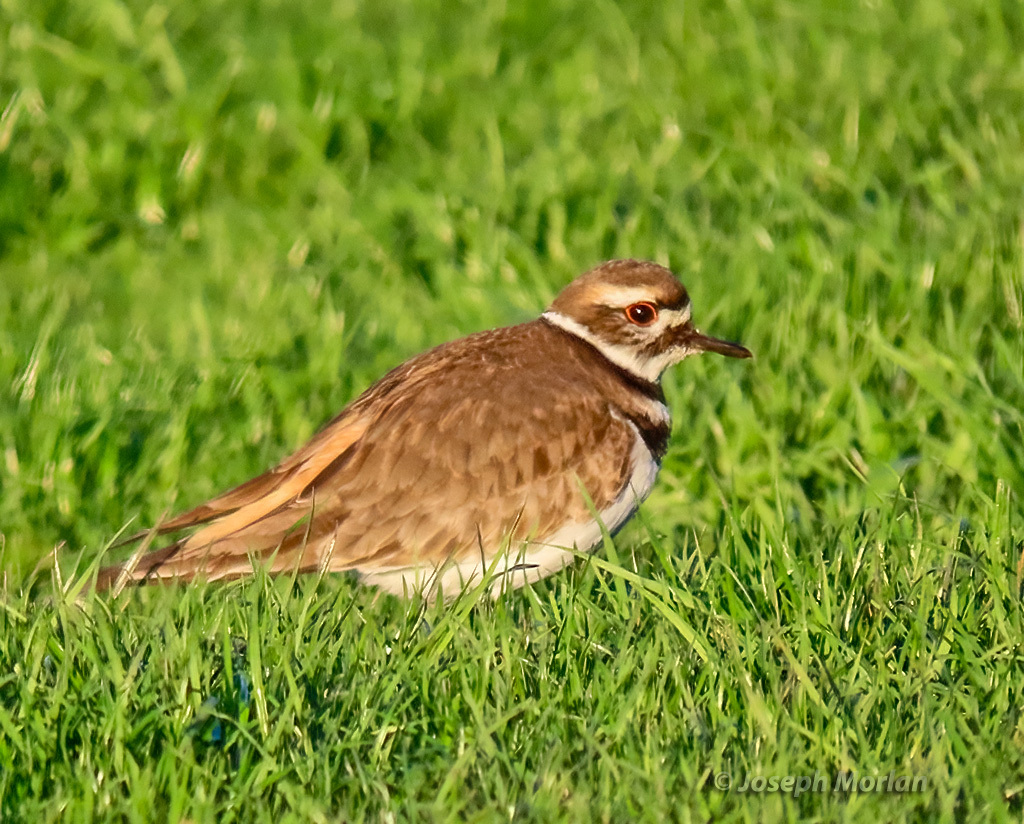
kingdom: Animalia
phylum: Chordata
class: Aves
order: Charadriiformes
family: Charadriidae
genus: Charadrius
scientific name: Charadrius vociferus
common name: Killdeer
